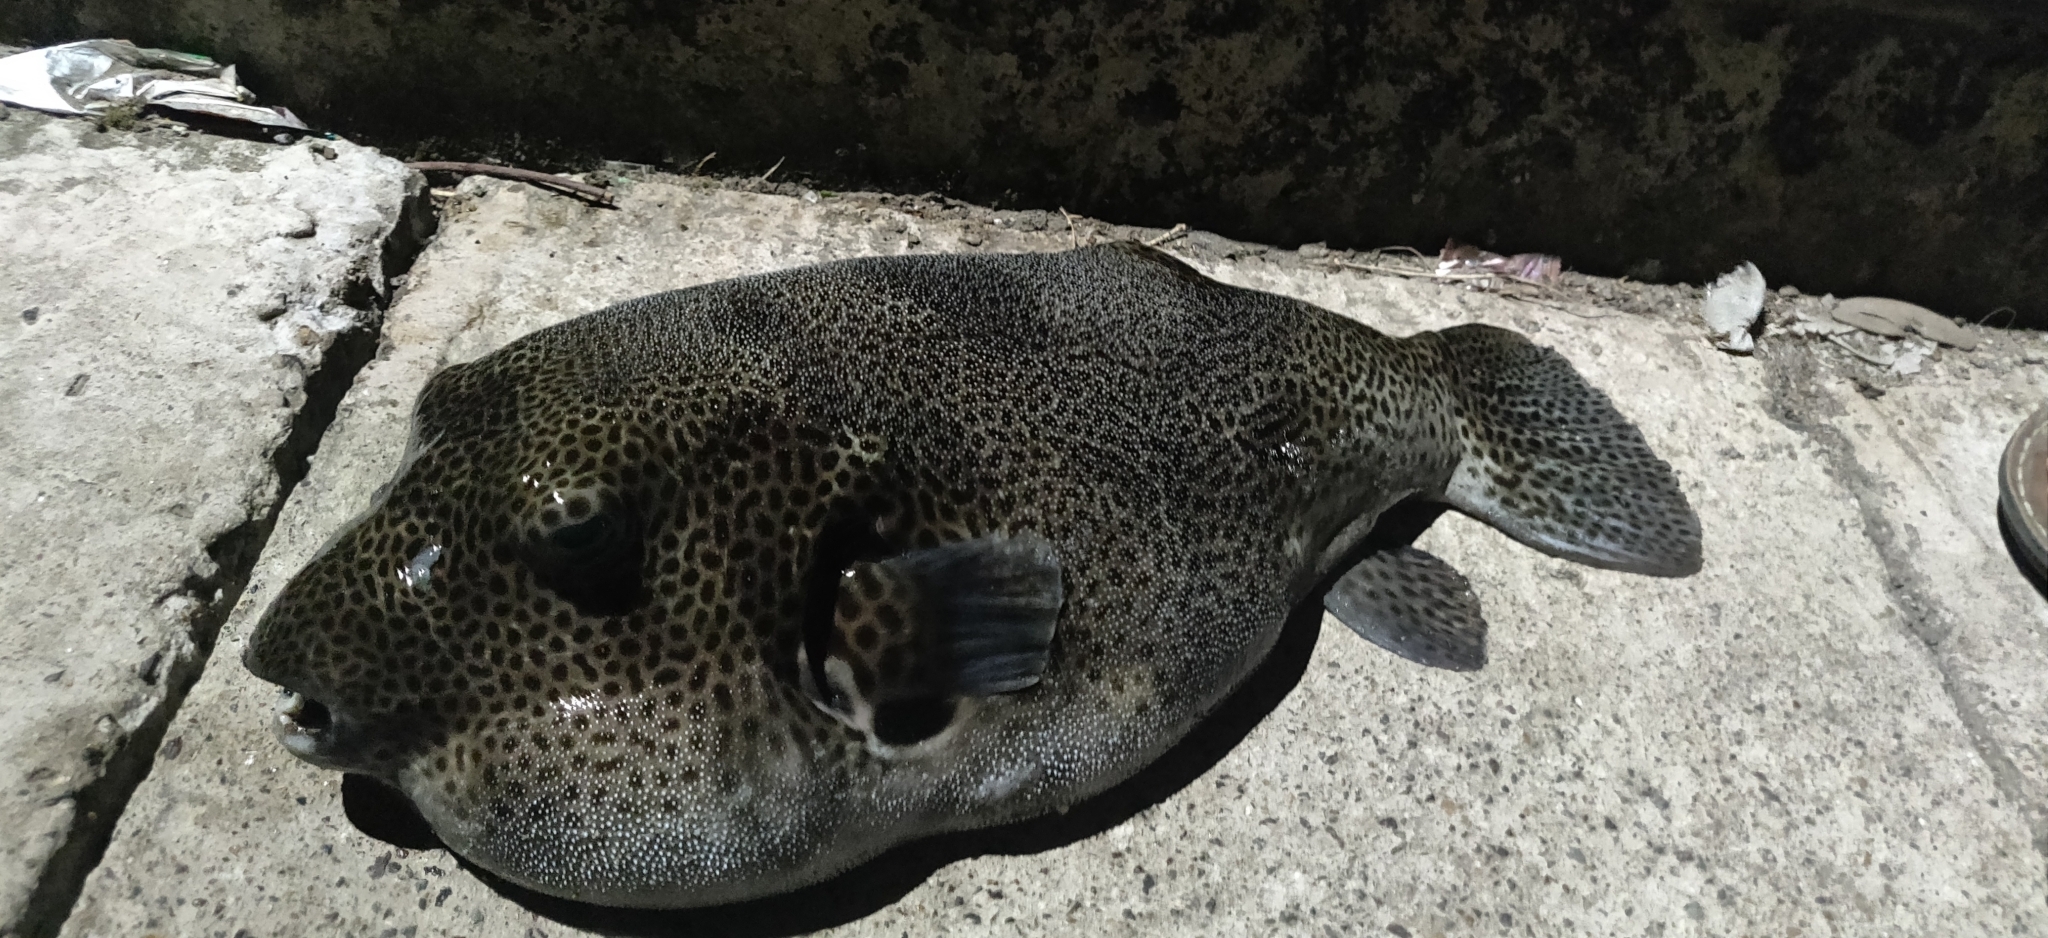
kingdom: Animalia
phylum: Chordata
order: Tetraodontiformes
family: Tetraodontidae
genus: Arothron
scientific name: Arothron stellatus
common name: Star blaasop
